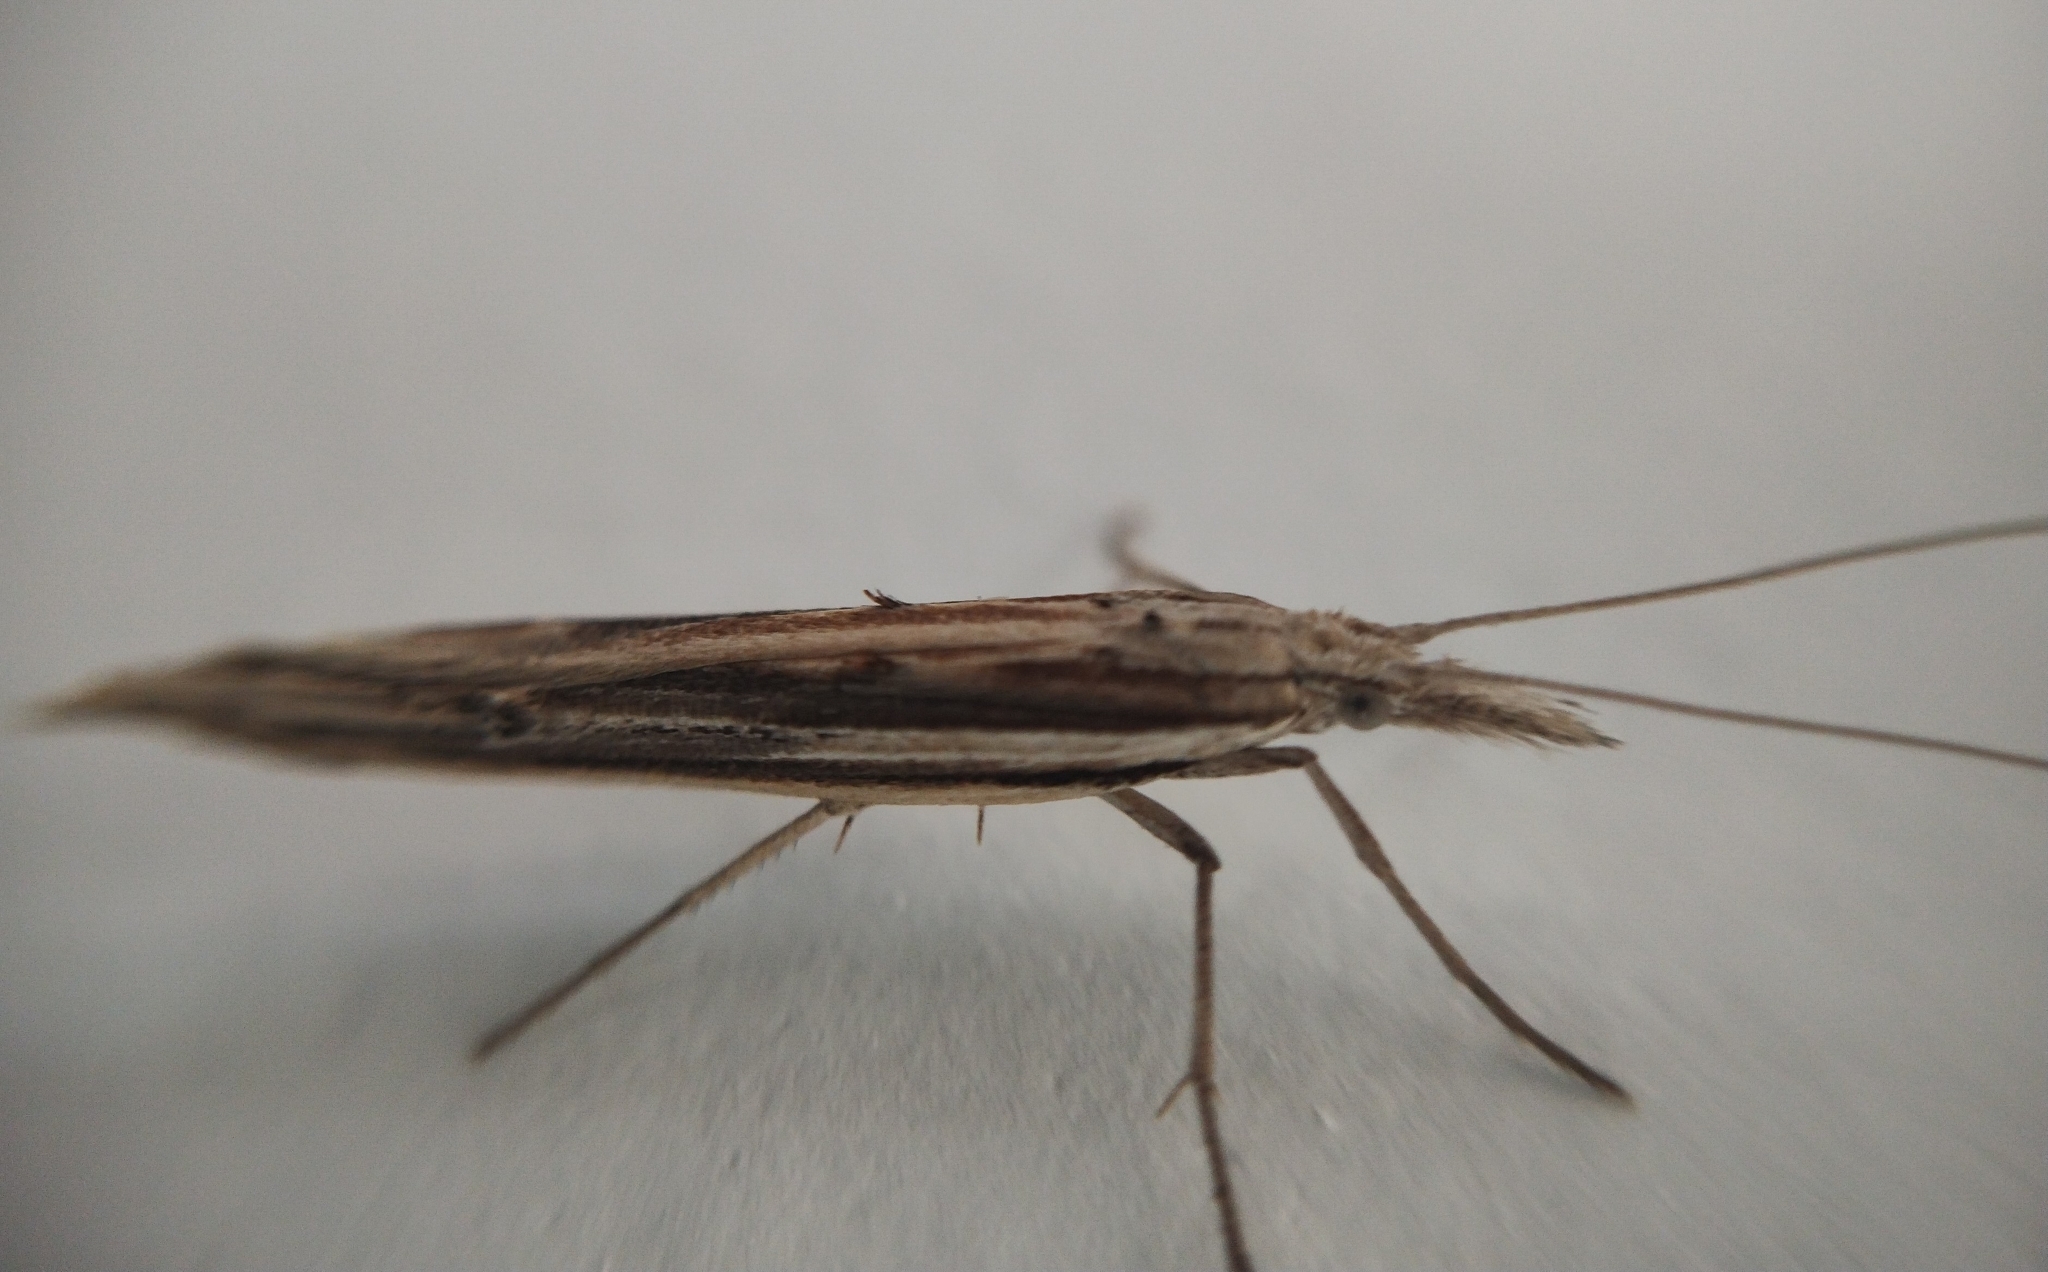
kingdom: Animalia
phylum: Arthropoda
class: Insecta
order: Lepidoptera
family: Ypsolophidae
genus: Ypsolopha
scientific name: Ypsolopha mucronella
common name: Spindle smudge
